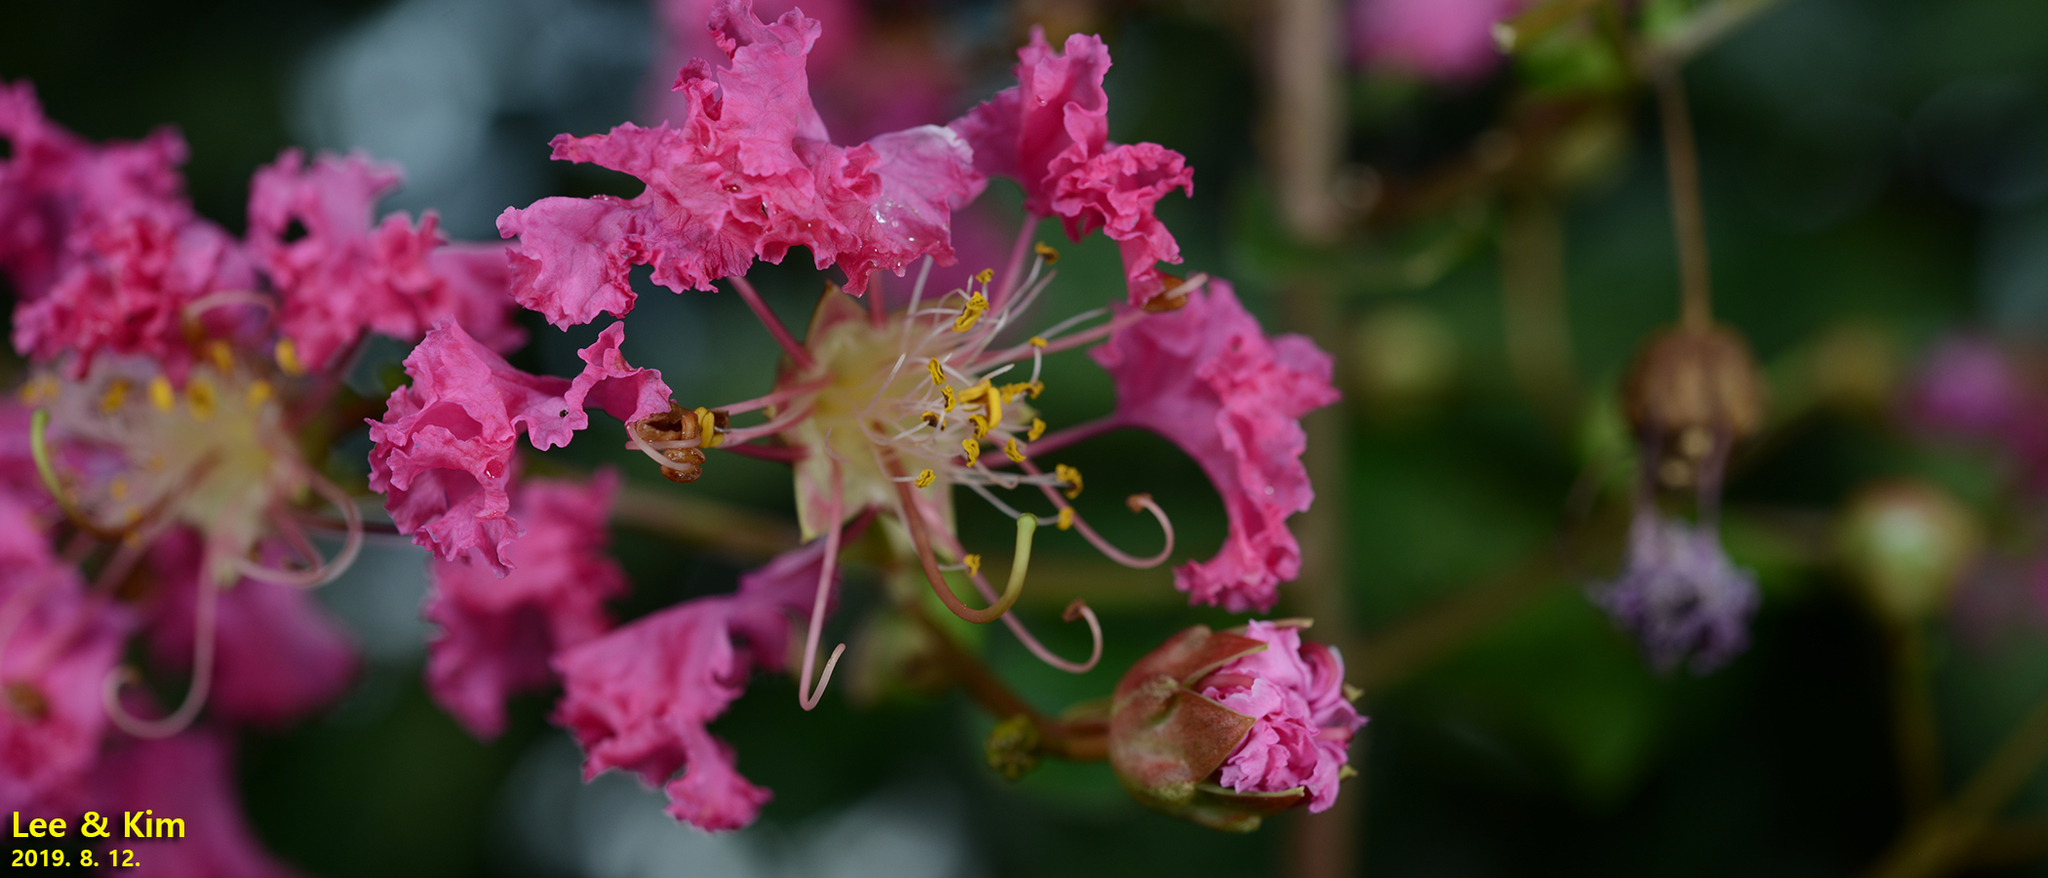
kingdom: Plantae
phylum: Tracheophyta
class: Magnoliopsida
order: Myrtales
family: Lythraceae
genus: Lagerstroemia
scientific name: Lagerstroemia indica
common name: Crape-myrtle
